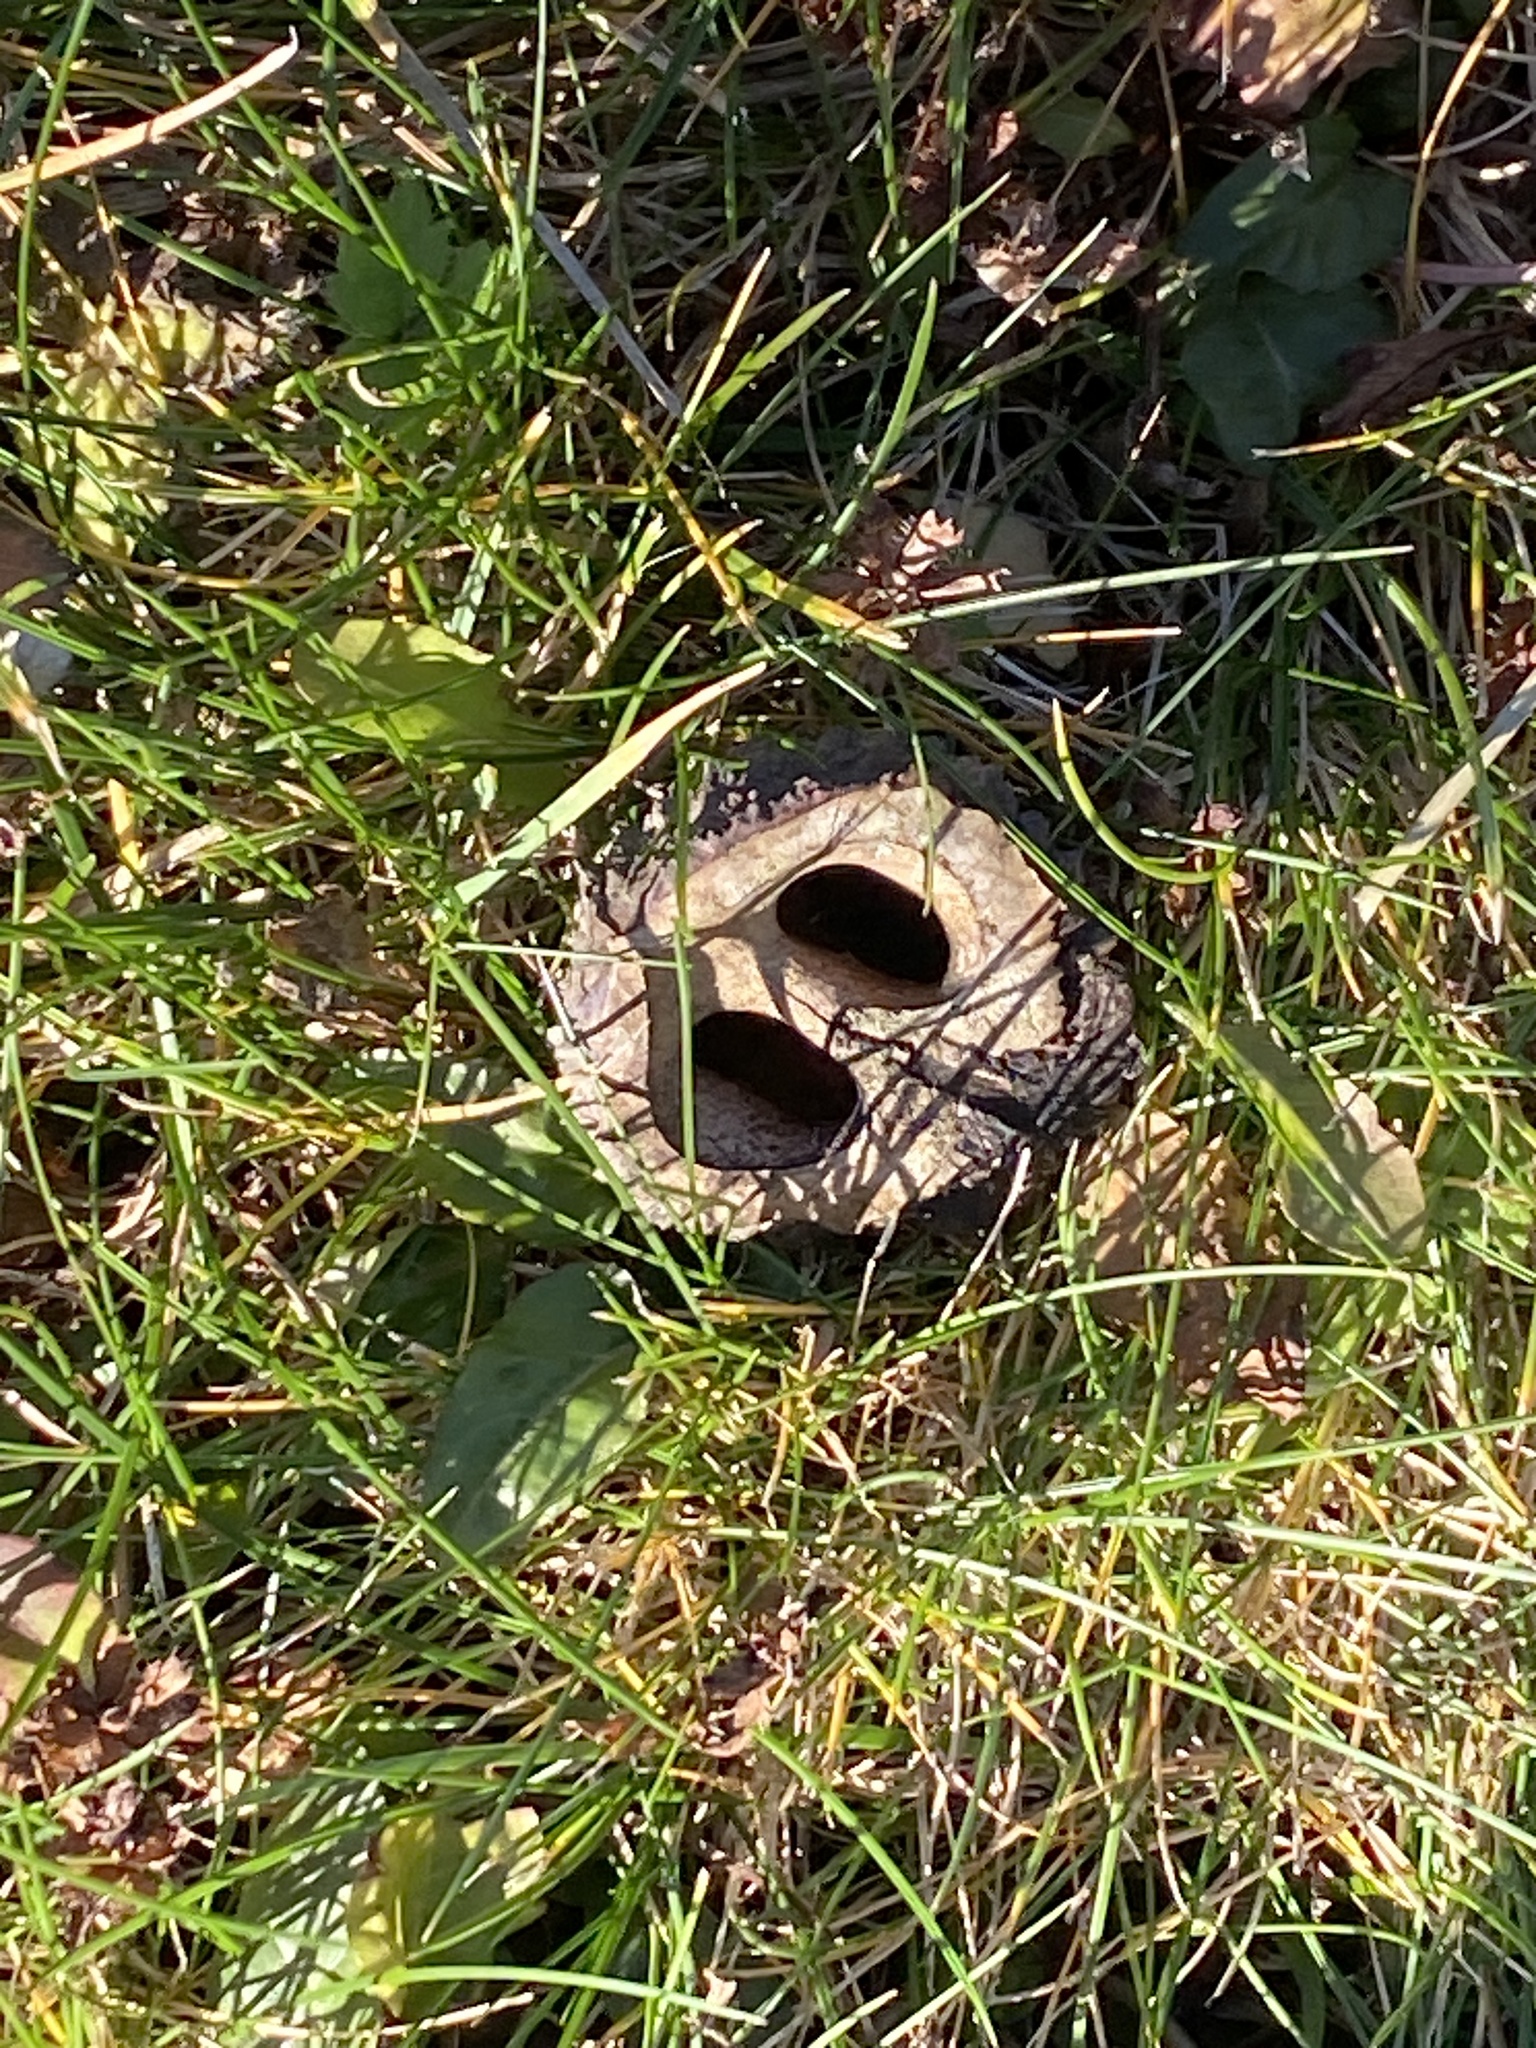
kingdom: Plantae
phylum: Tracheophyta
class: Magnoliopsida
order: Fagales
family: Juglandaceae
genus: Juglans
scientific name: Juglans nigra
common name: Black walnut
